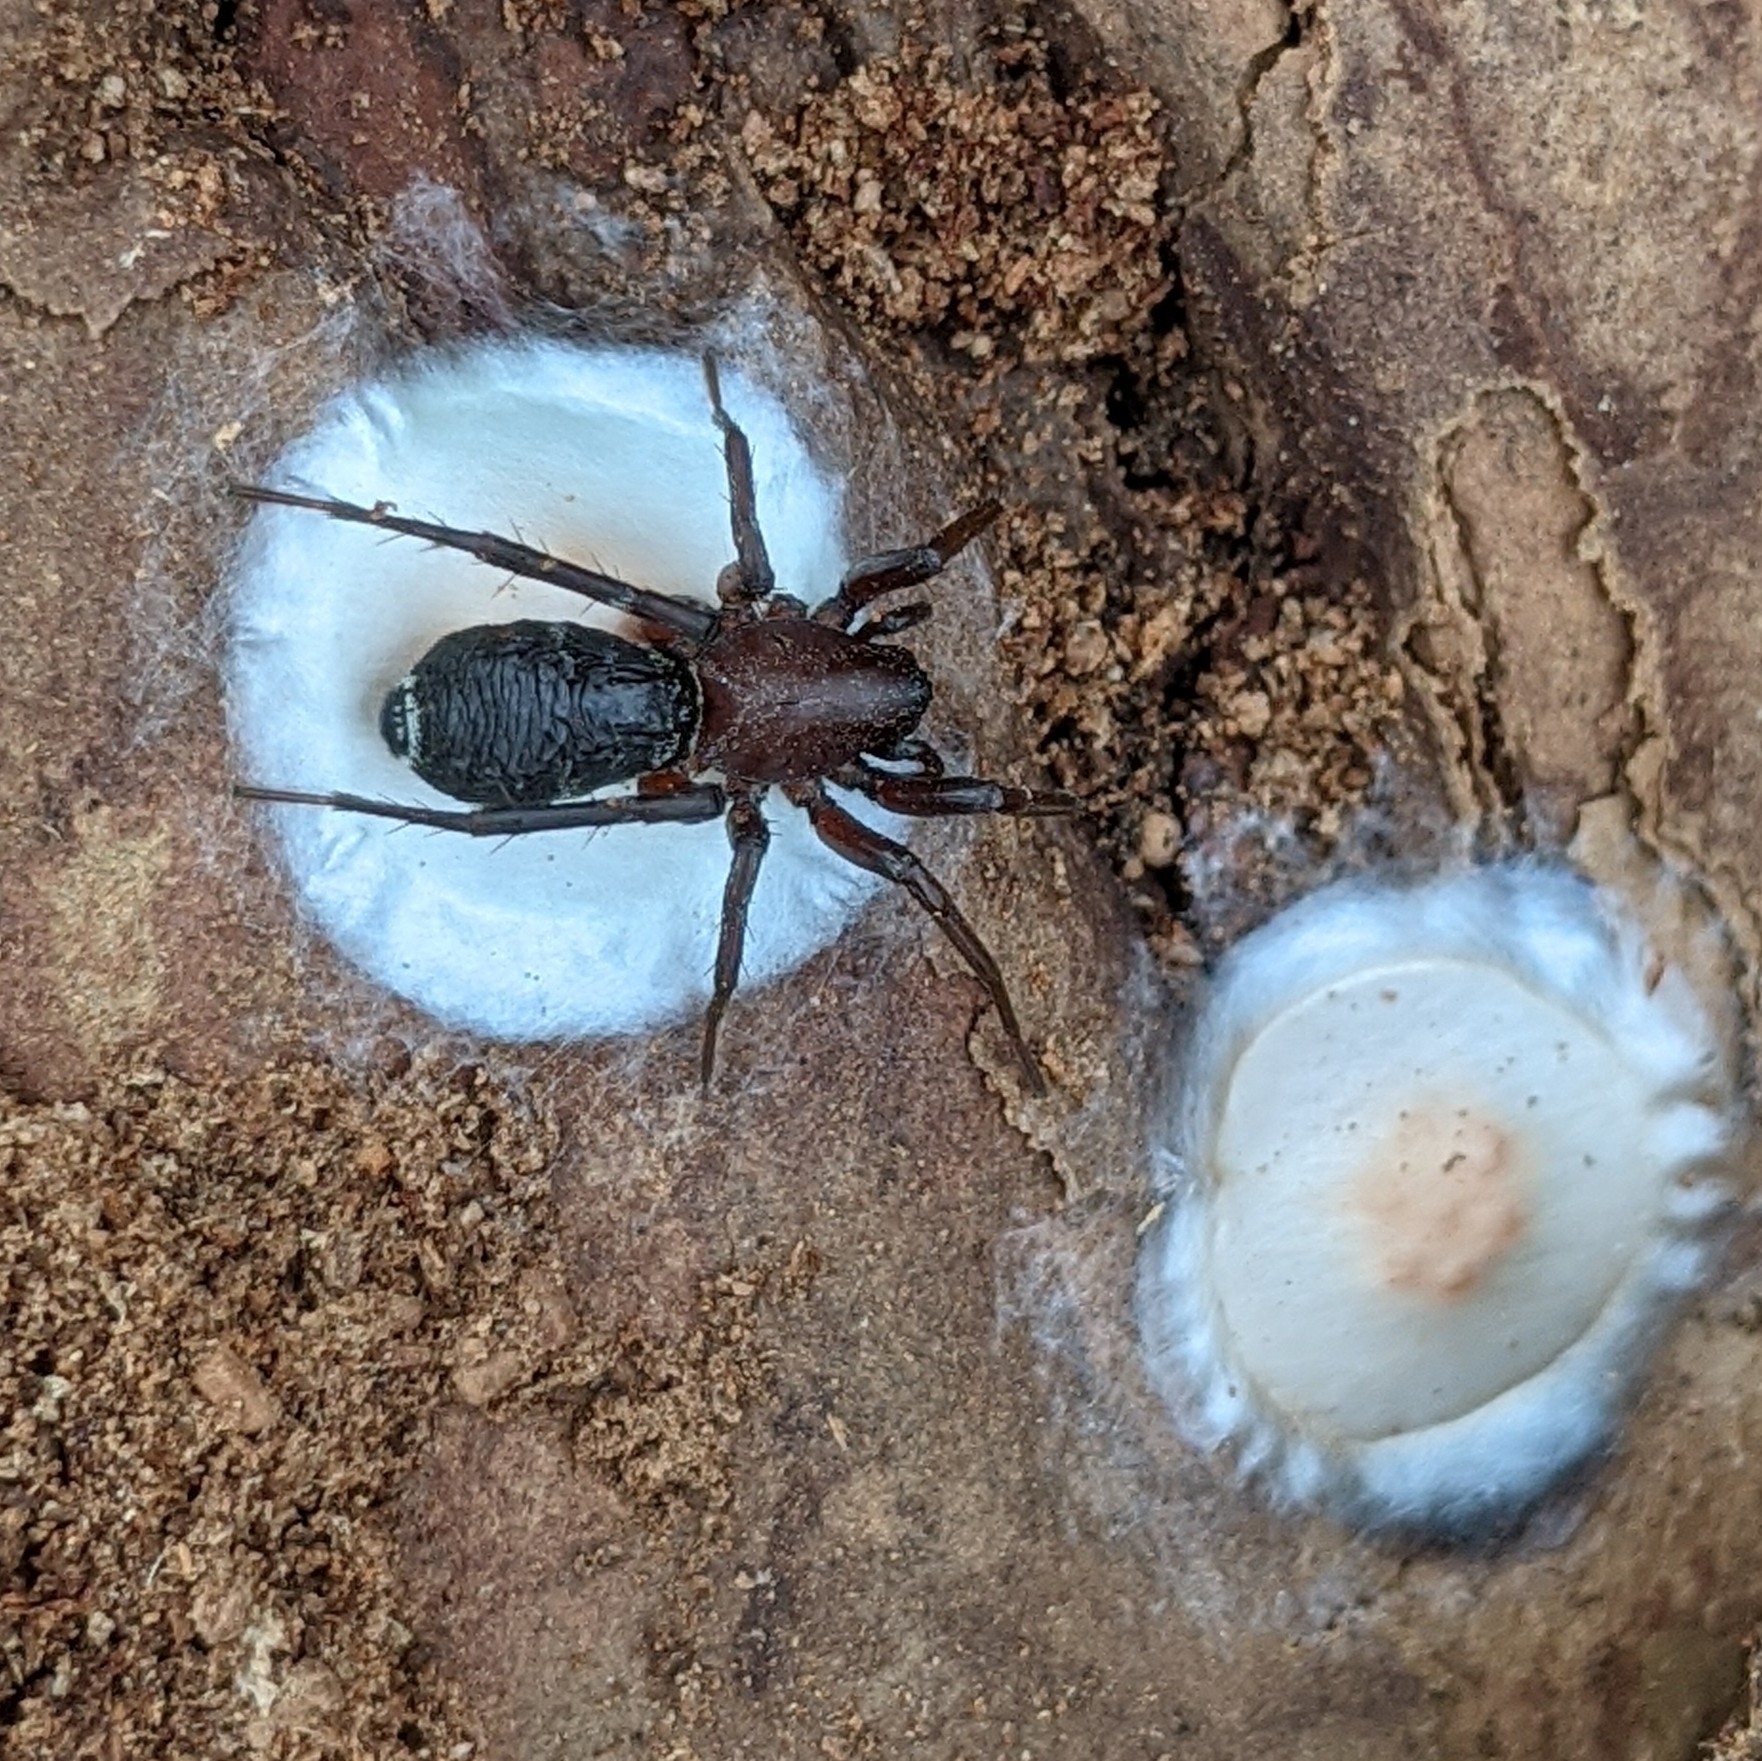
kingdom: Animalia
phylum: Arthropoda
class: Arachnida
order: Araneae
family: Corinnidae
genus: Castianeira
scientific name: Castianeira longipalpa
